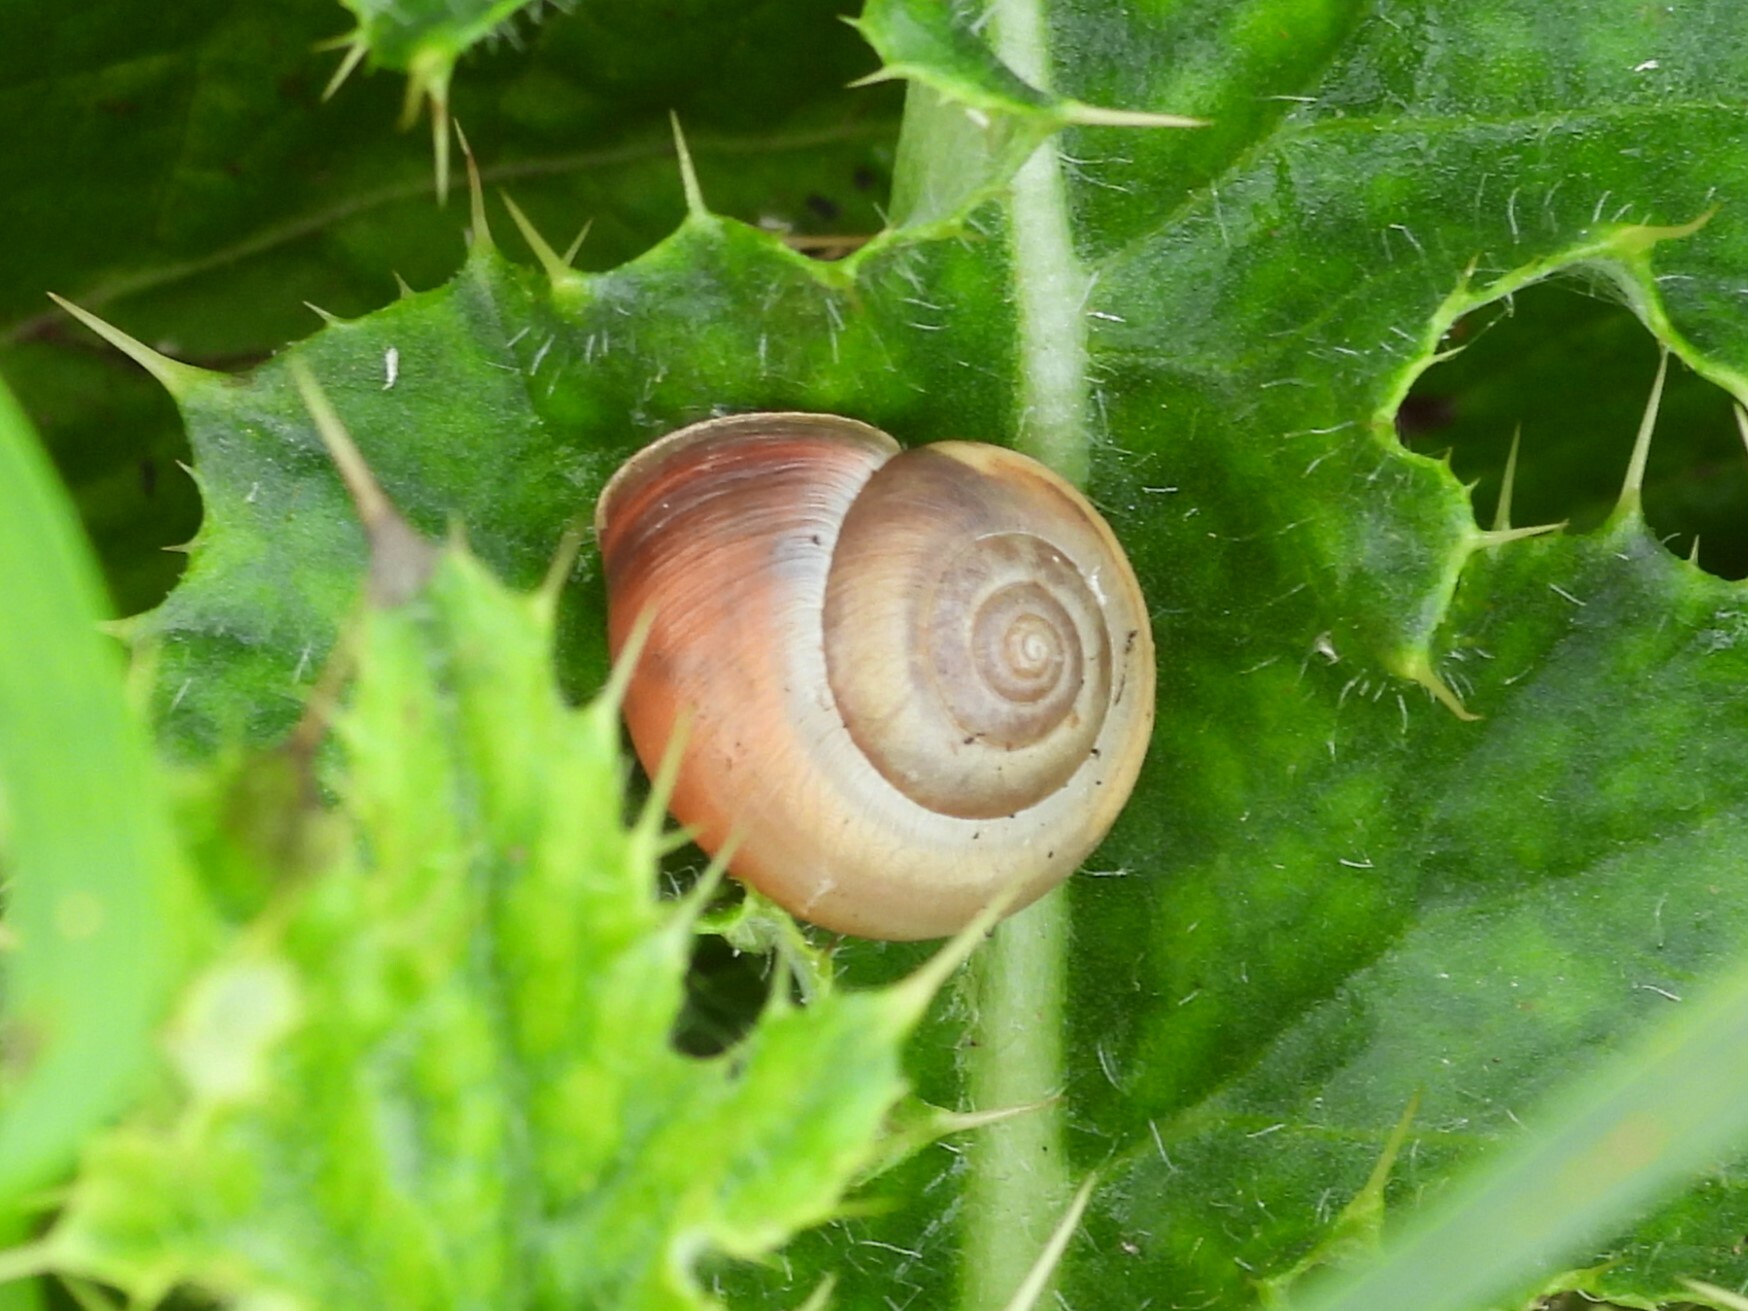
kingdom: Animalia
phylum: Mollusca
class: Gastropoda
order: Stylommatophora
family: Hygromiidae
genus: Monacha
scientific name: Monacha cantiana
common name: Kentish snail
